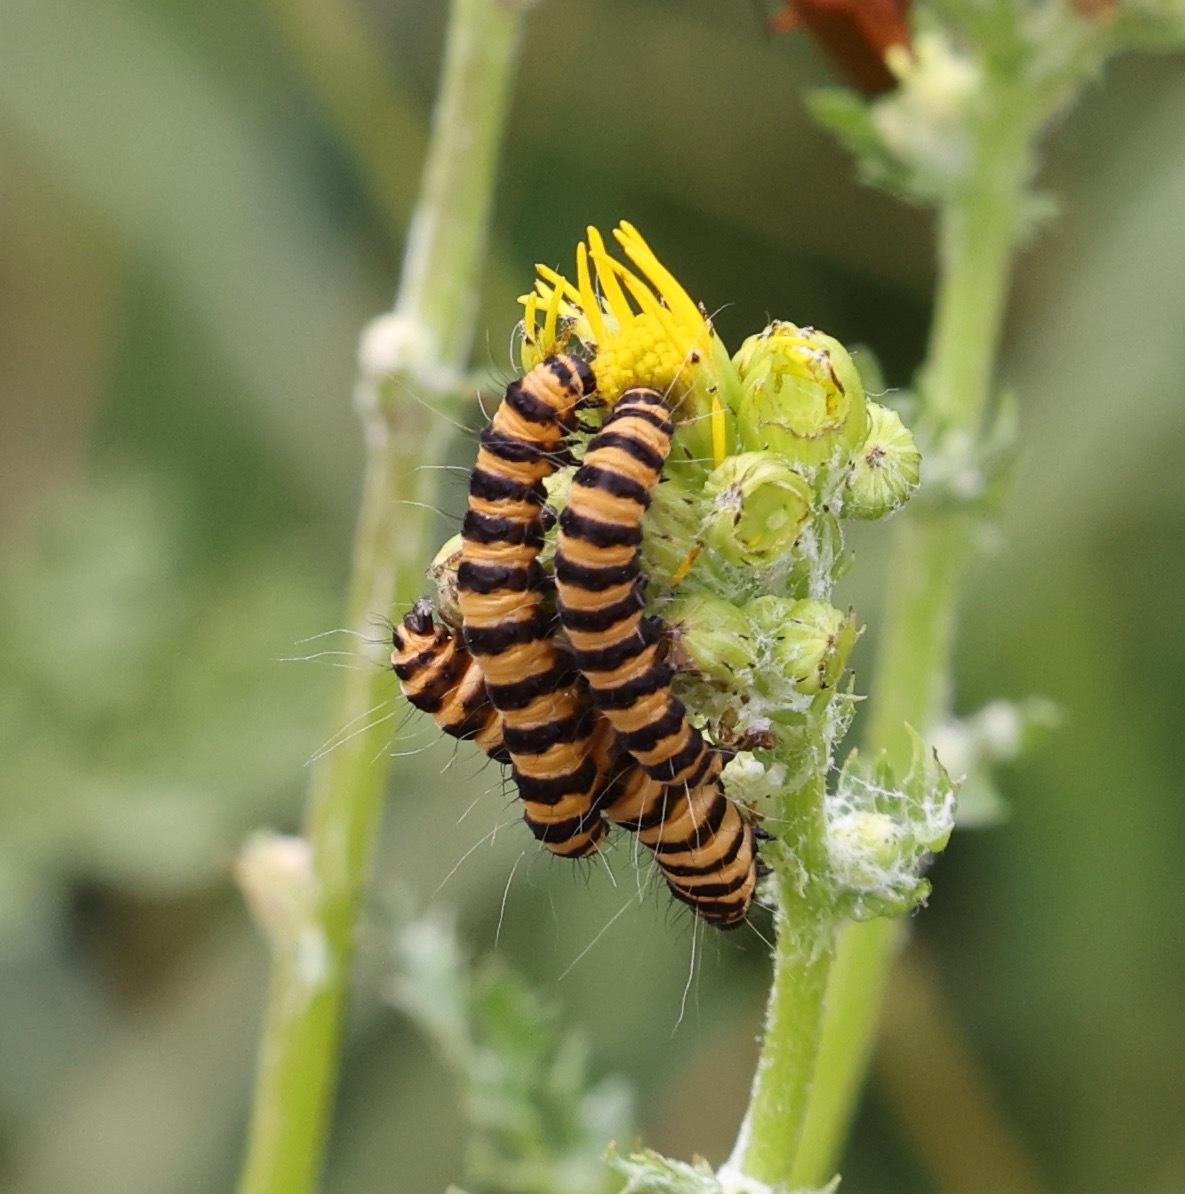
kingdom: Animalia
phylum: Arthropoda
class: Insecta
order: Lepidoptera
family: Erebidae
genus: Tyria
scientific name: Tyria jacobaeae
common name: Cinnabar
